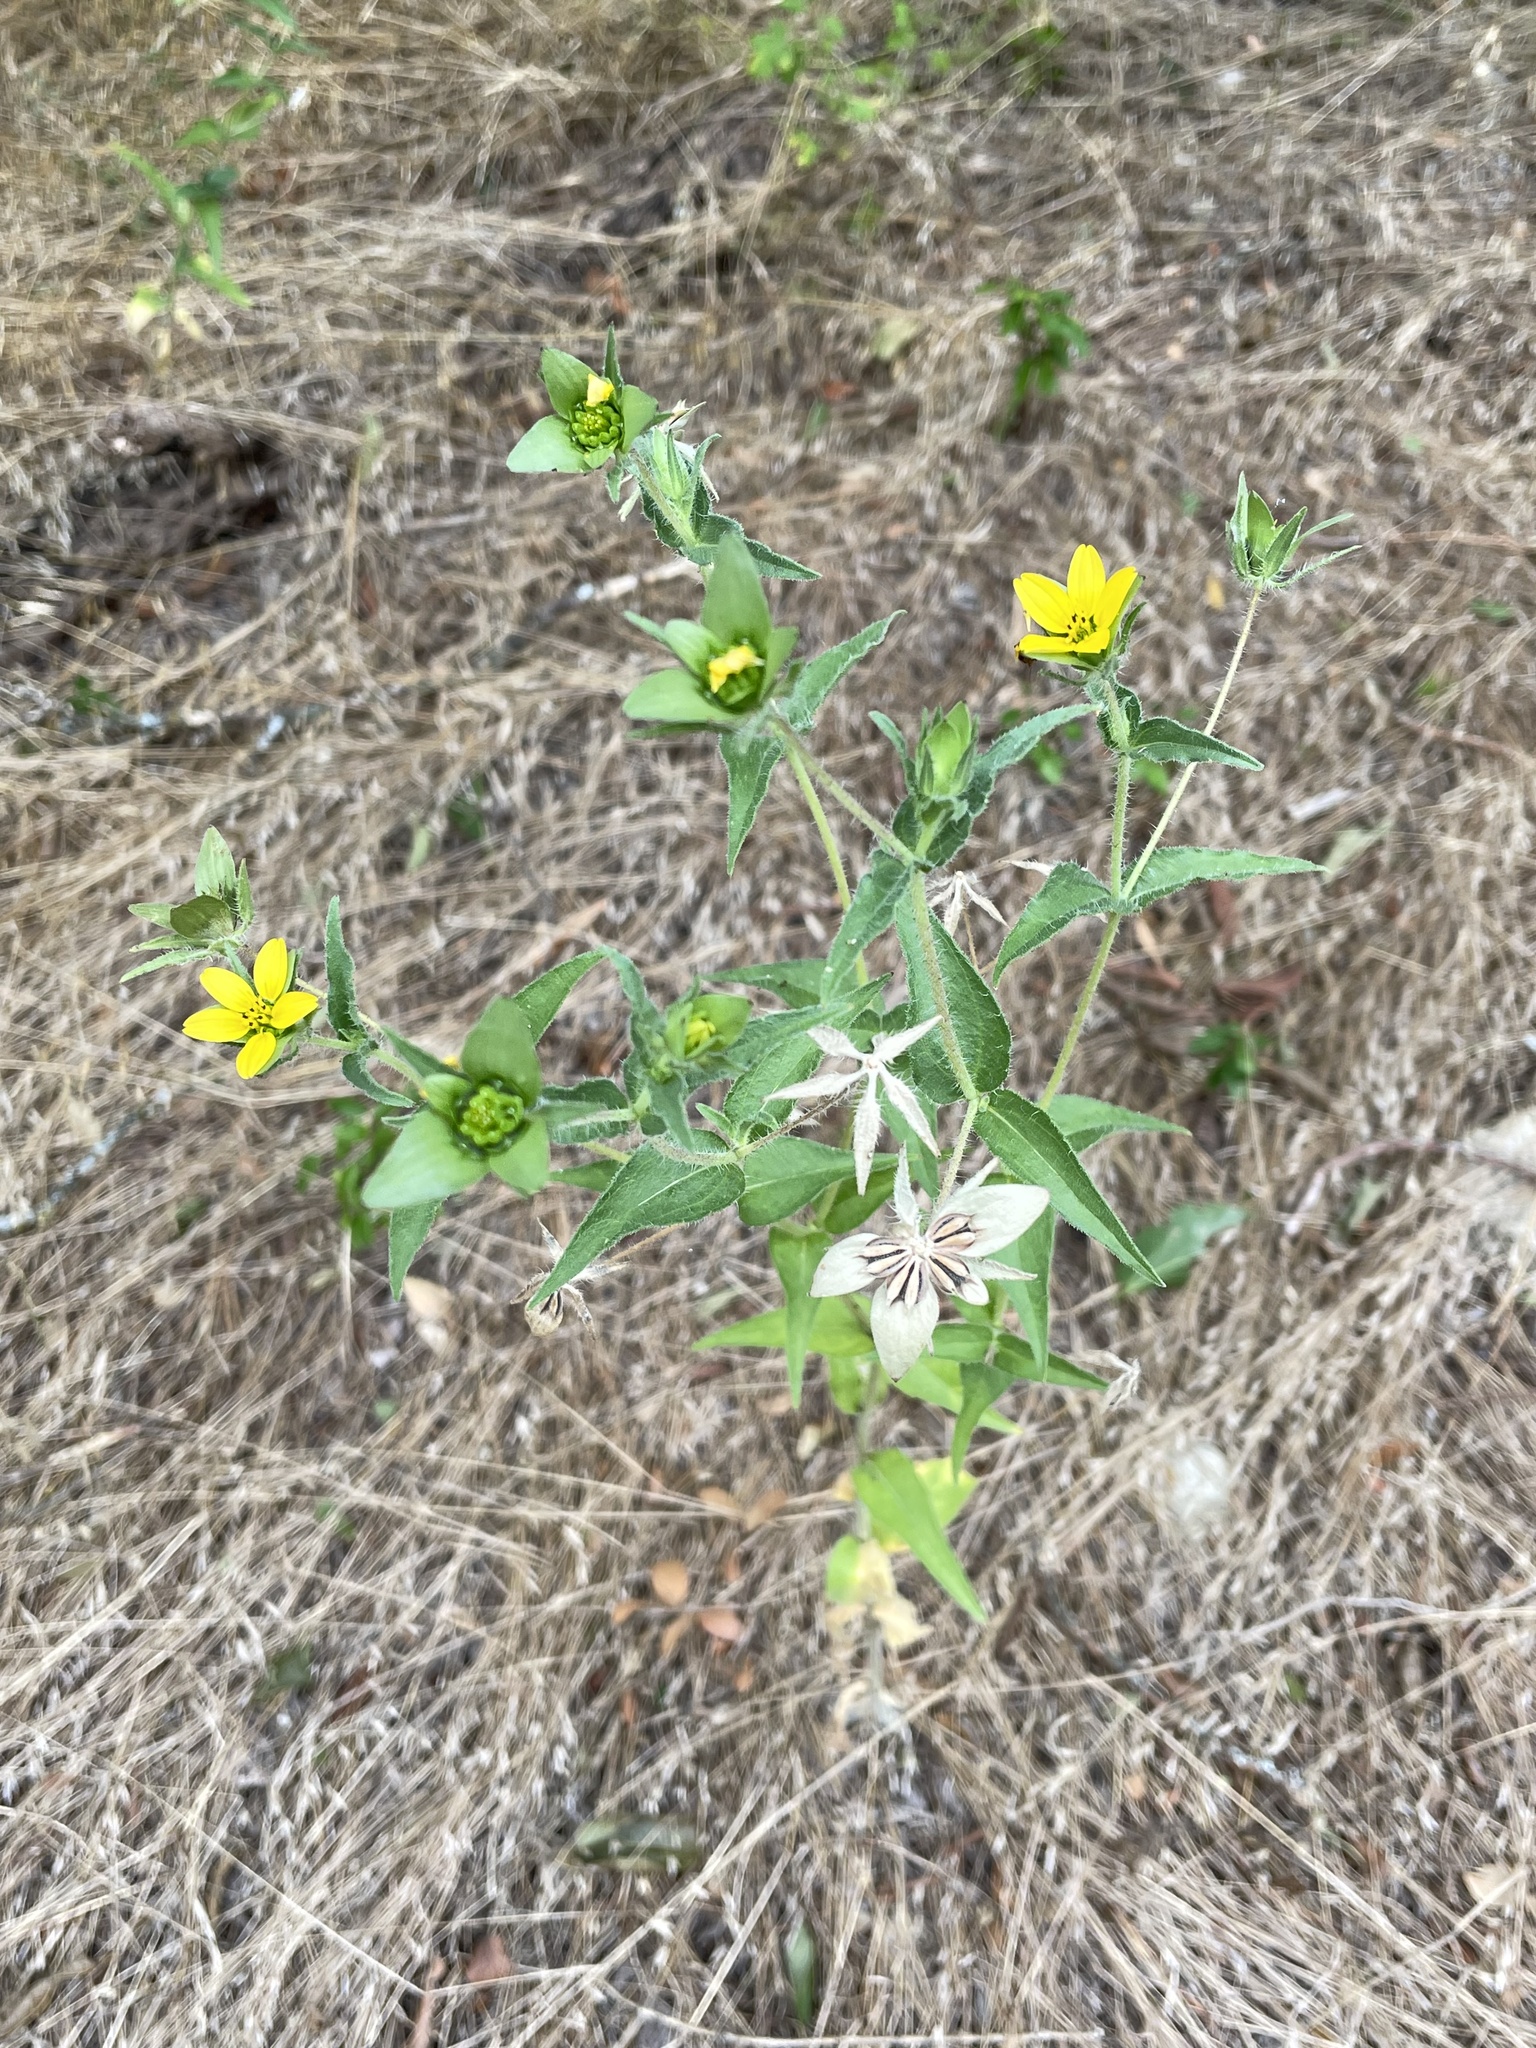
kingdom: Plantae
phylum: Tracheophyta
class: Magnoliopsida
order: Asterales
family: Asteraceae
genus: Lindheimera
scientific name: Lindheimera texana
